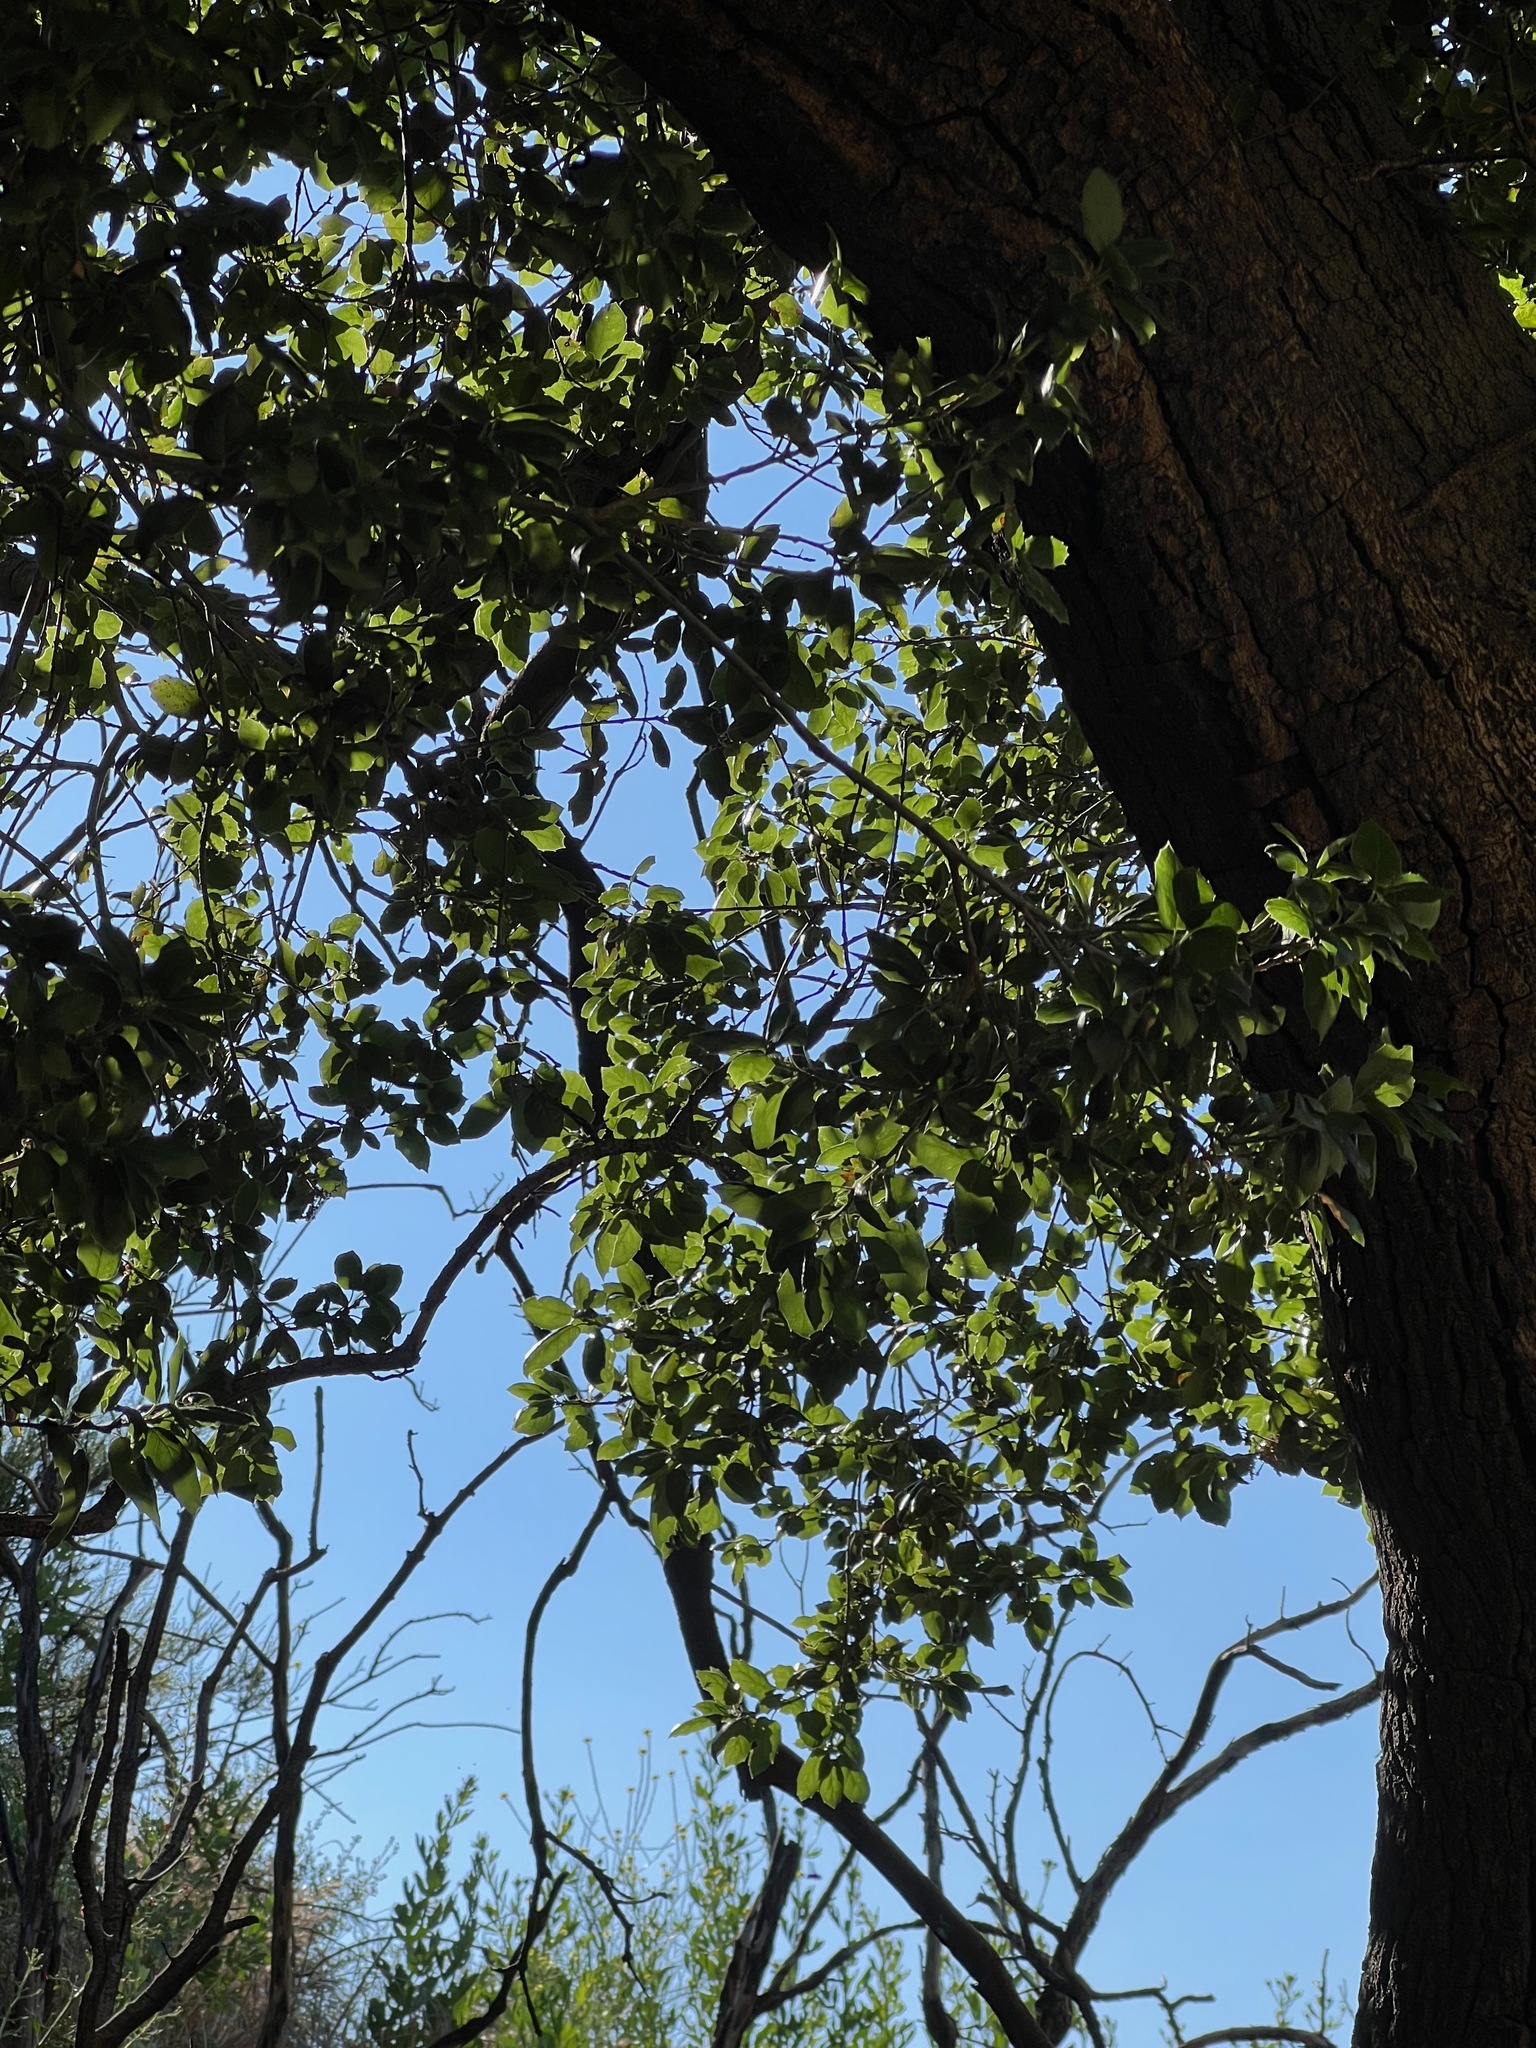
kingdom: Plantae
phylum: Tracheophyta
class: Magnoliopsida
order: Fagales
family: Fagaceae
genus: Quercus
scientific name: Quercus agrifolia
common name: California live oak
